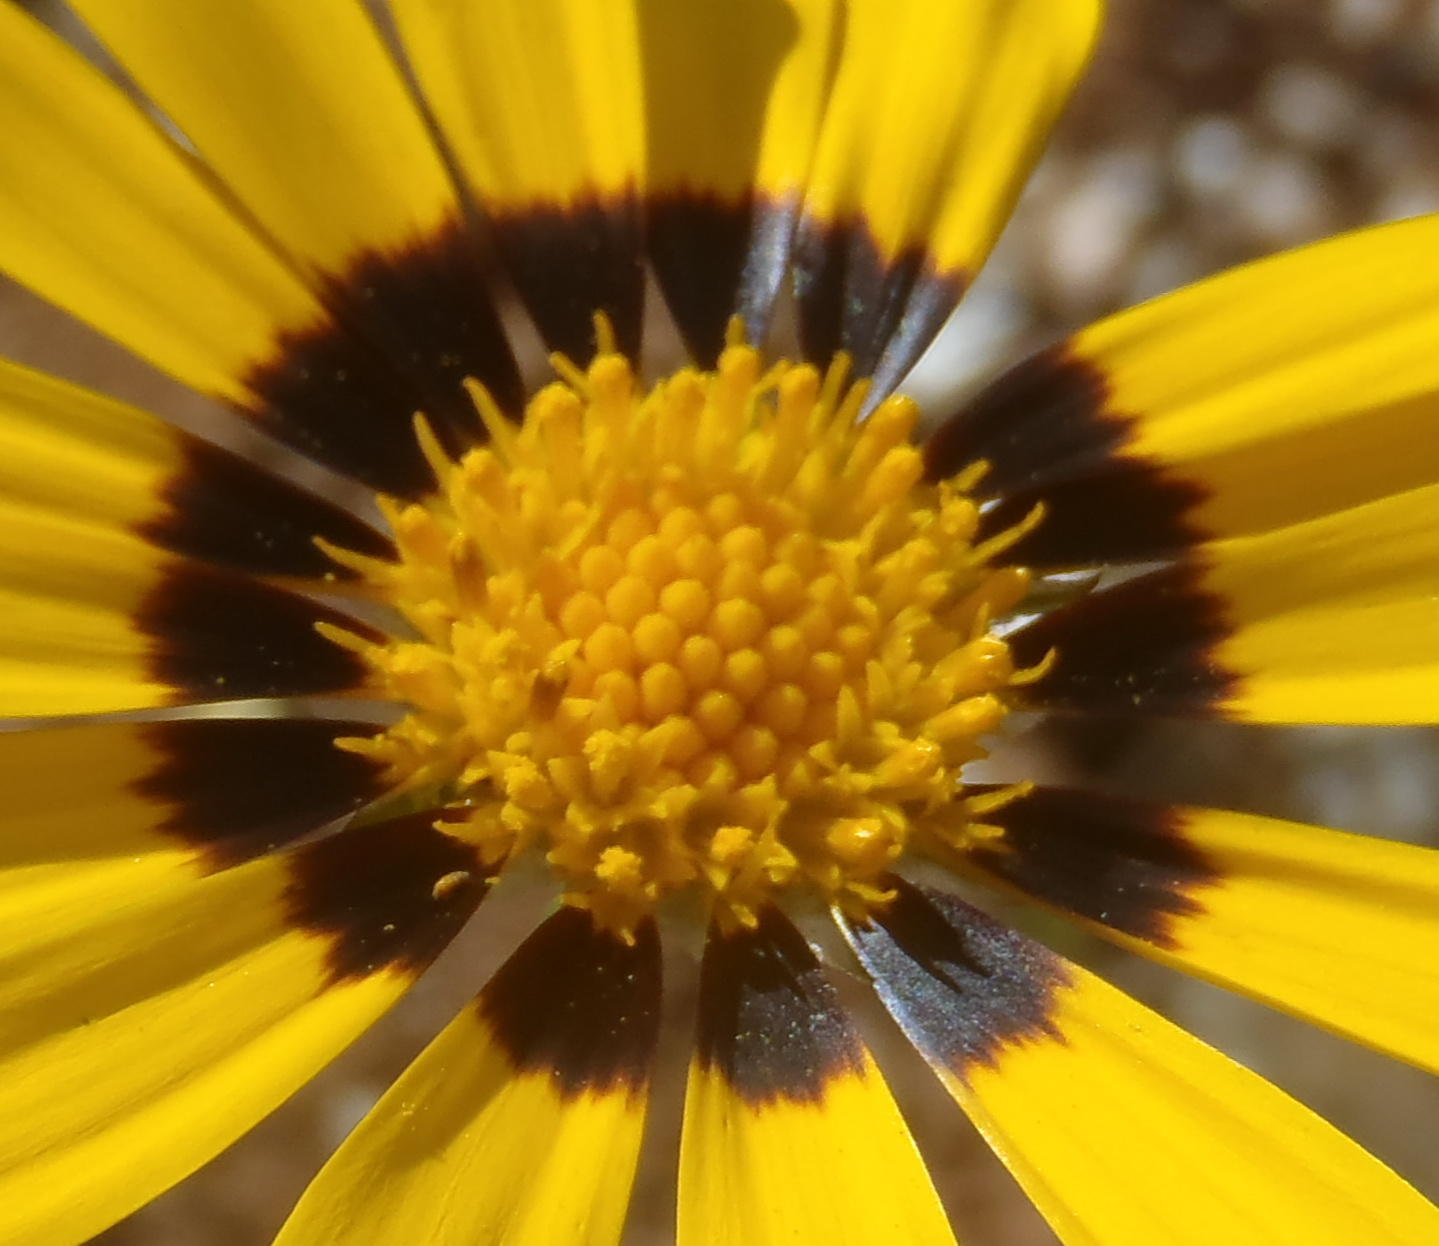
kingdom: Plantae
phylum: Tracheophyta
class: Magnoliopsida
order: Asterales
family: Asteraceae
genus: Osteospermum
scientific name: Osteospermum scariosum
